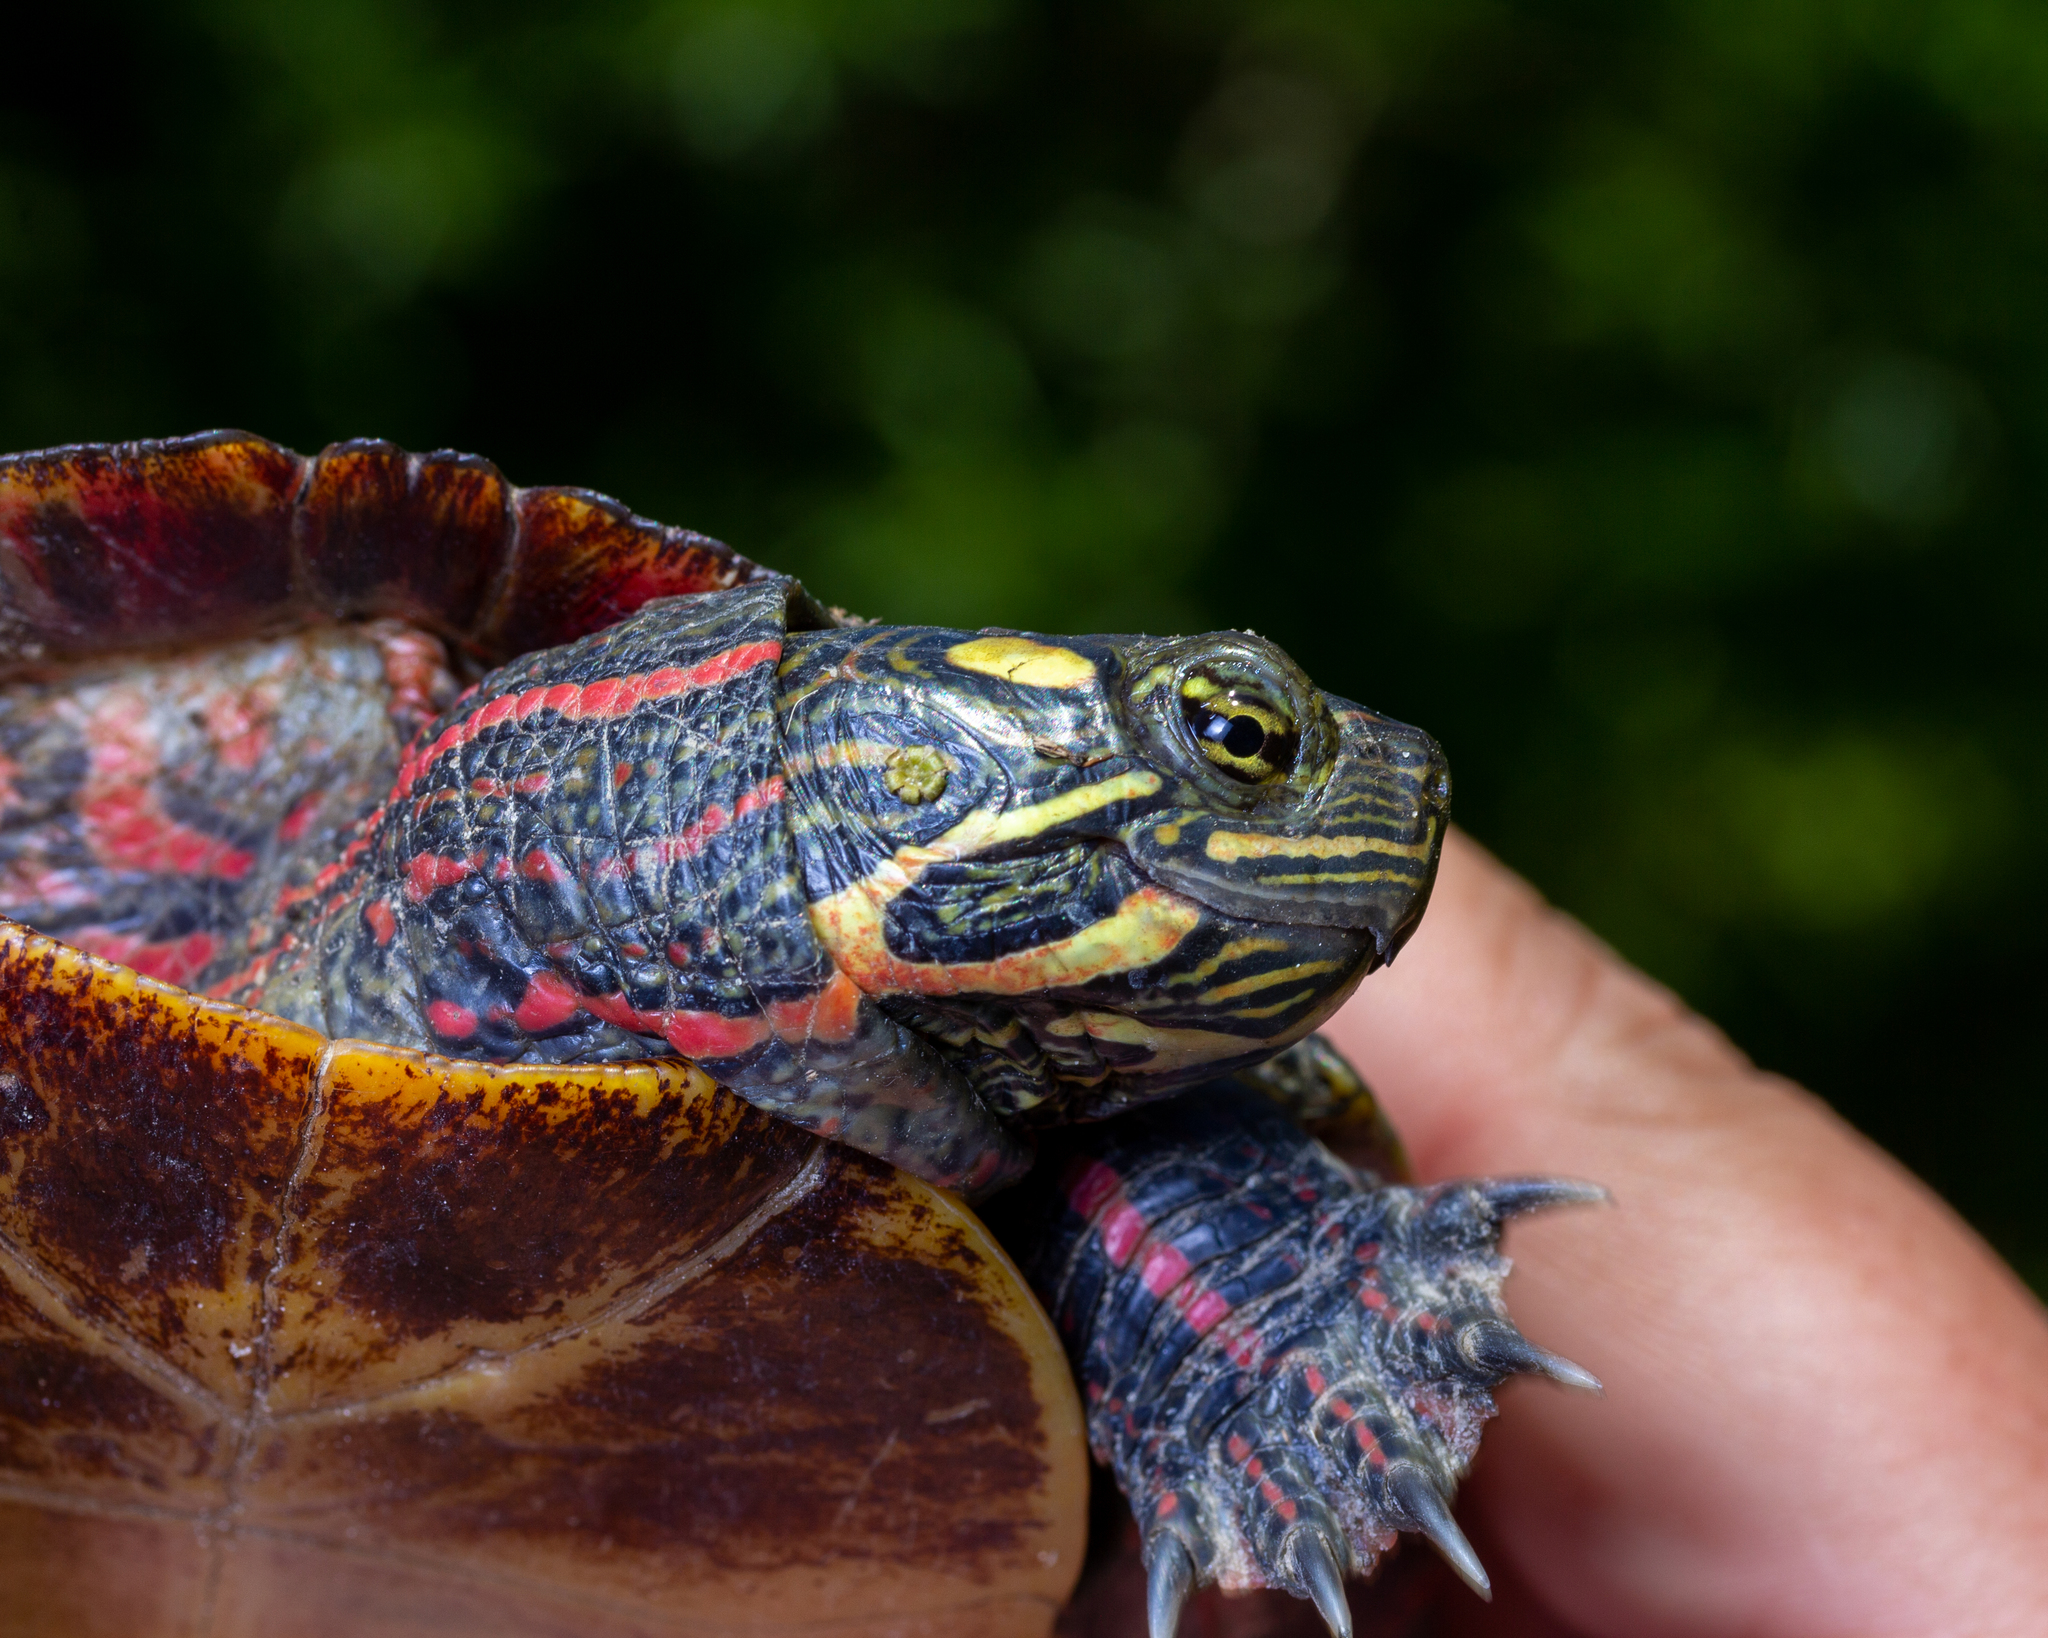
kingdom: Animalia
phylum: Chordata
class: Testudines
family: Emydidae
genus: Chrysemys
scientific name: Chrysemys picta
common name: Painted turtle
